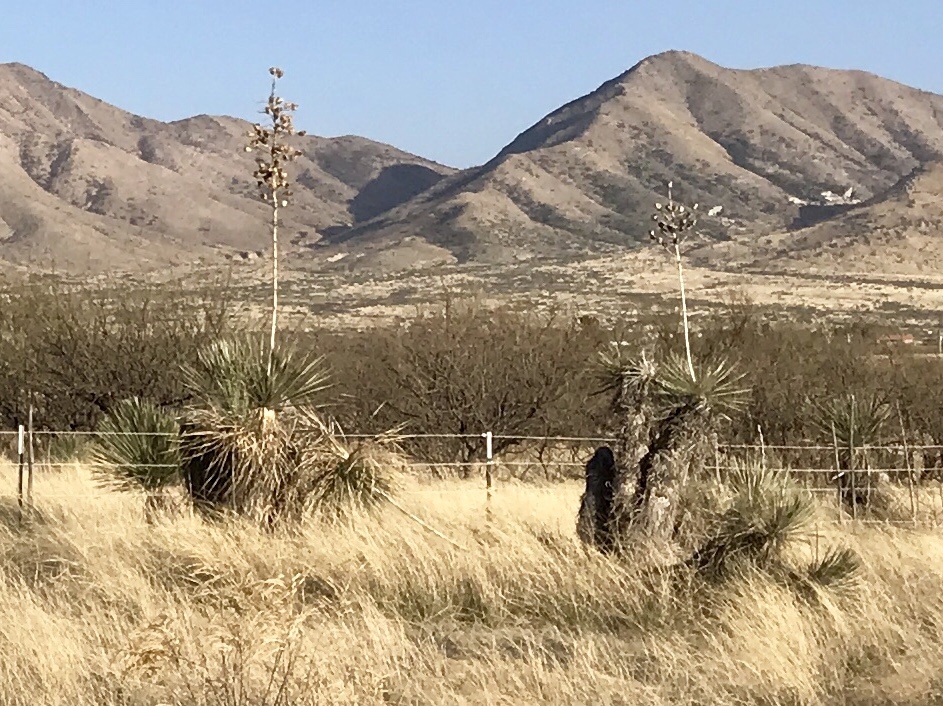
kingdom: Plantae
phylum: Tracheophyta
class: Liliopsida
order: Asparagales
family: Asparagaceae
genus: Yucca
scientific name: Yucca elata
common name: Palmella
